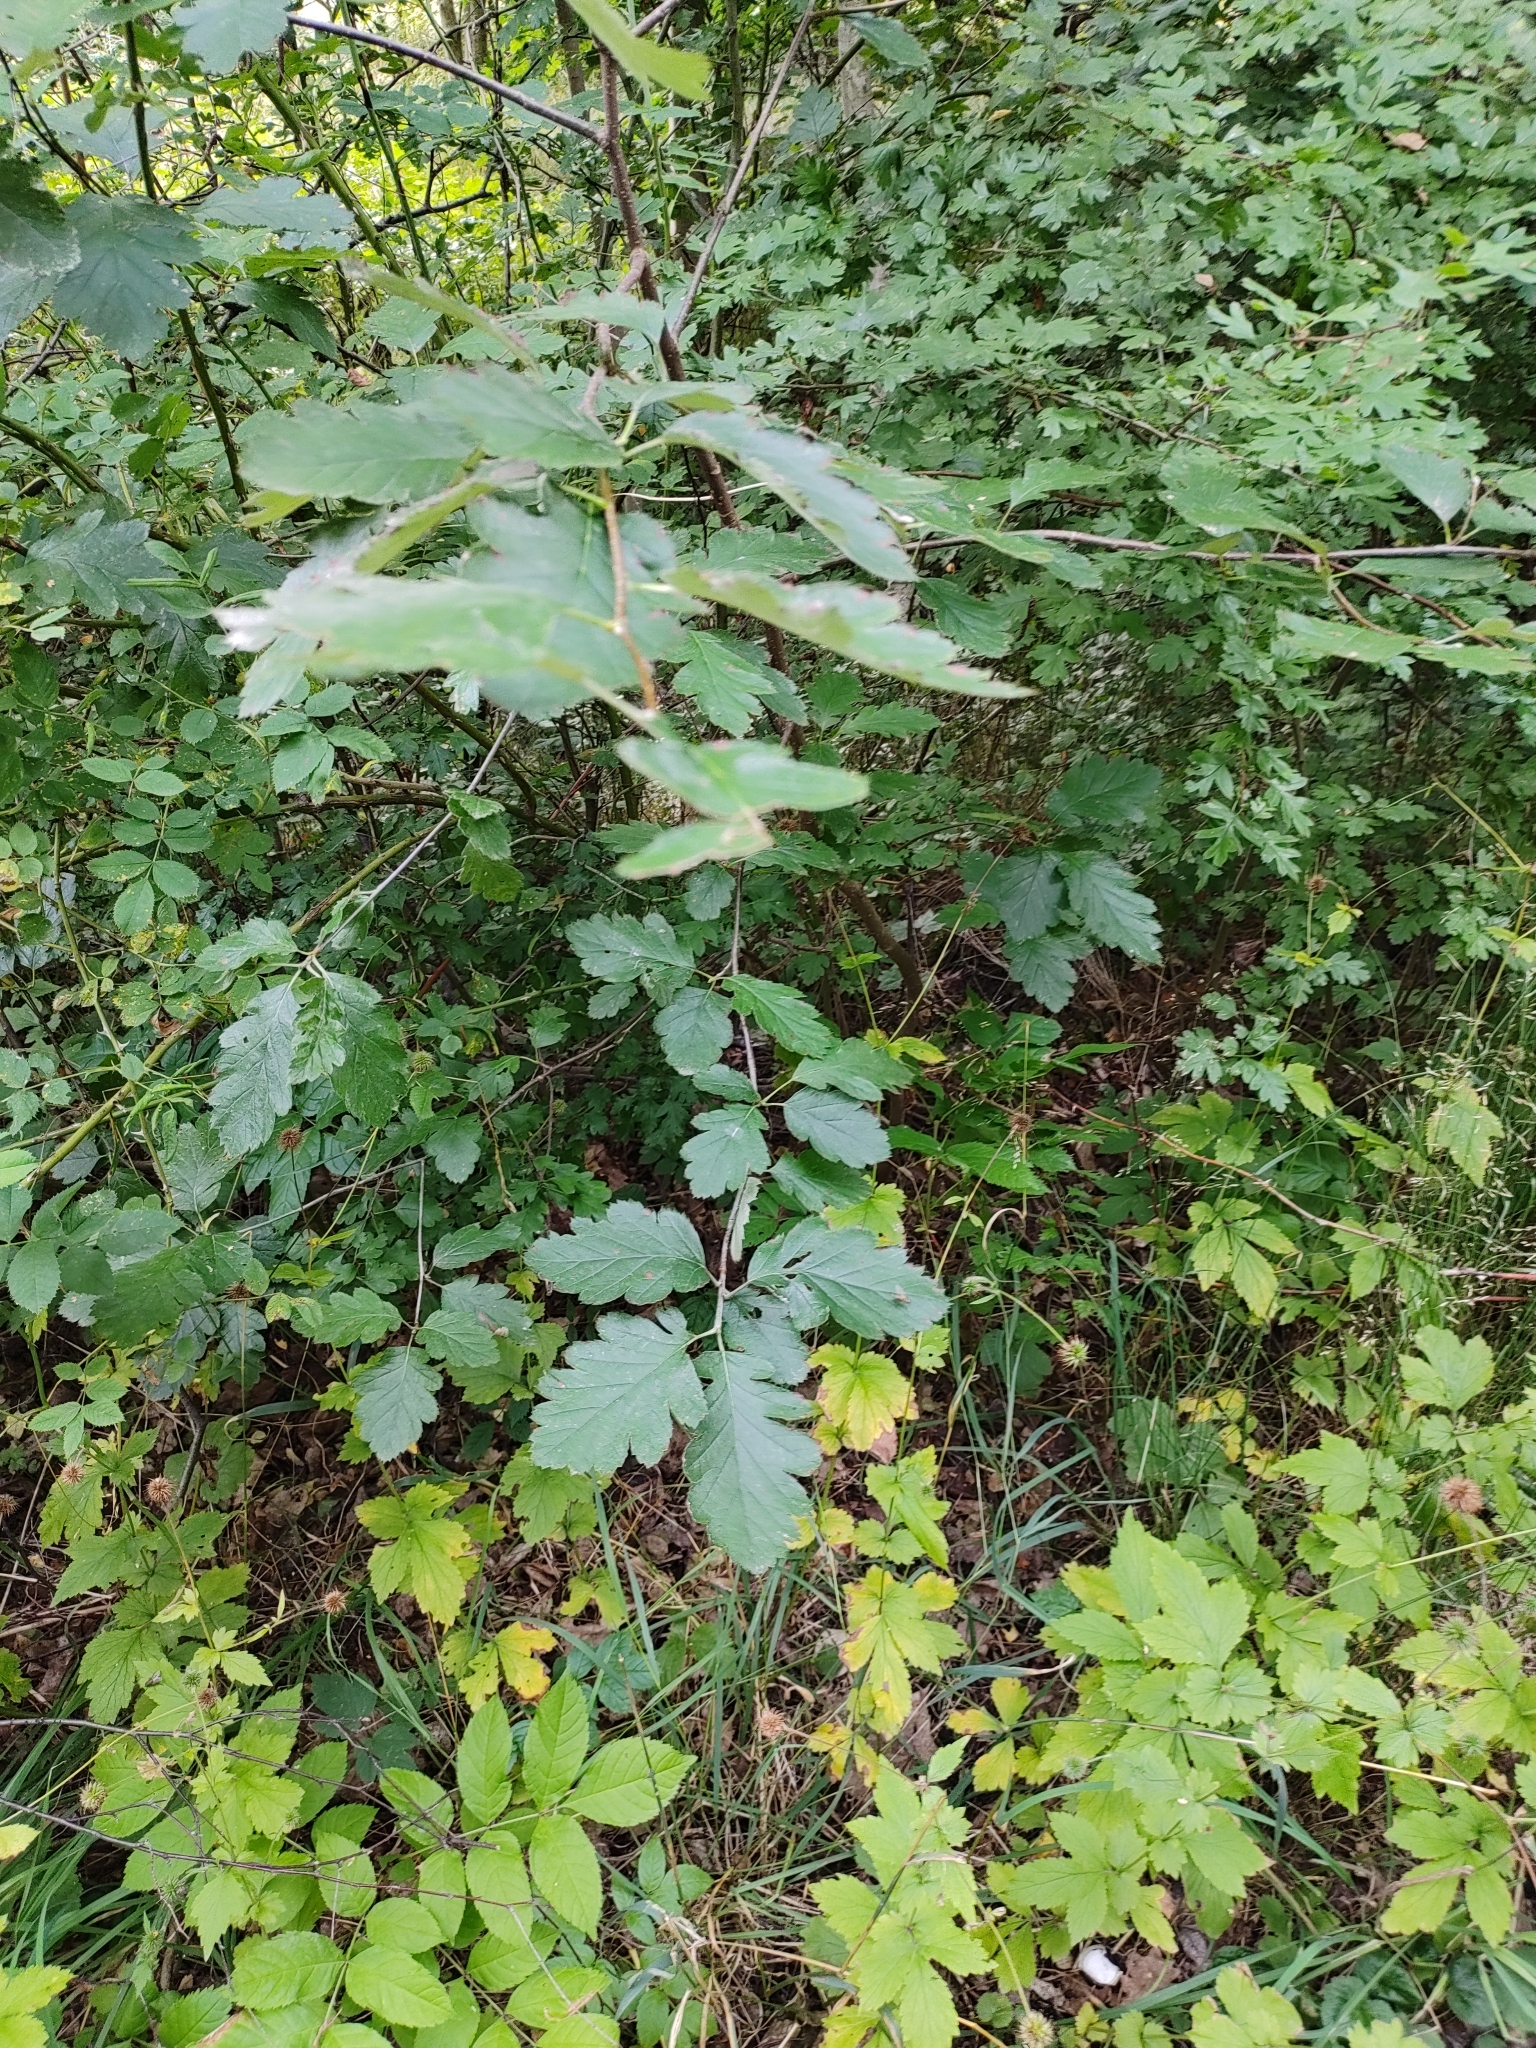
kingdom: Plantae
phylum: Tracheophyta
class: Magnoliopsida
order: Rosales
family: Rosaceae
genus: Scandosorbus
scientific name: Scandosorbus intermedia
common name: Swedish whitebeam
